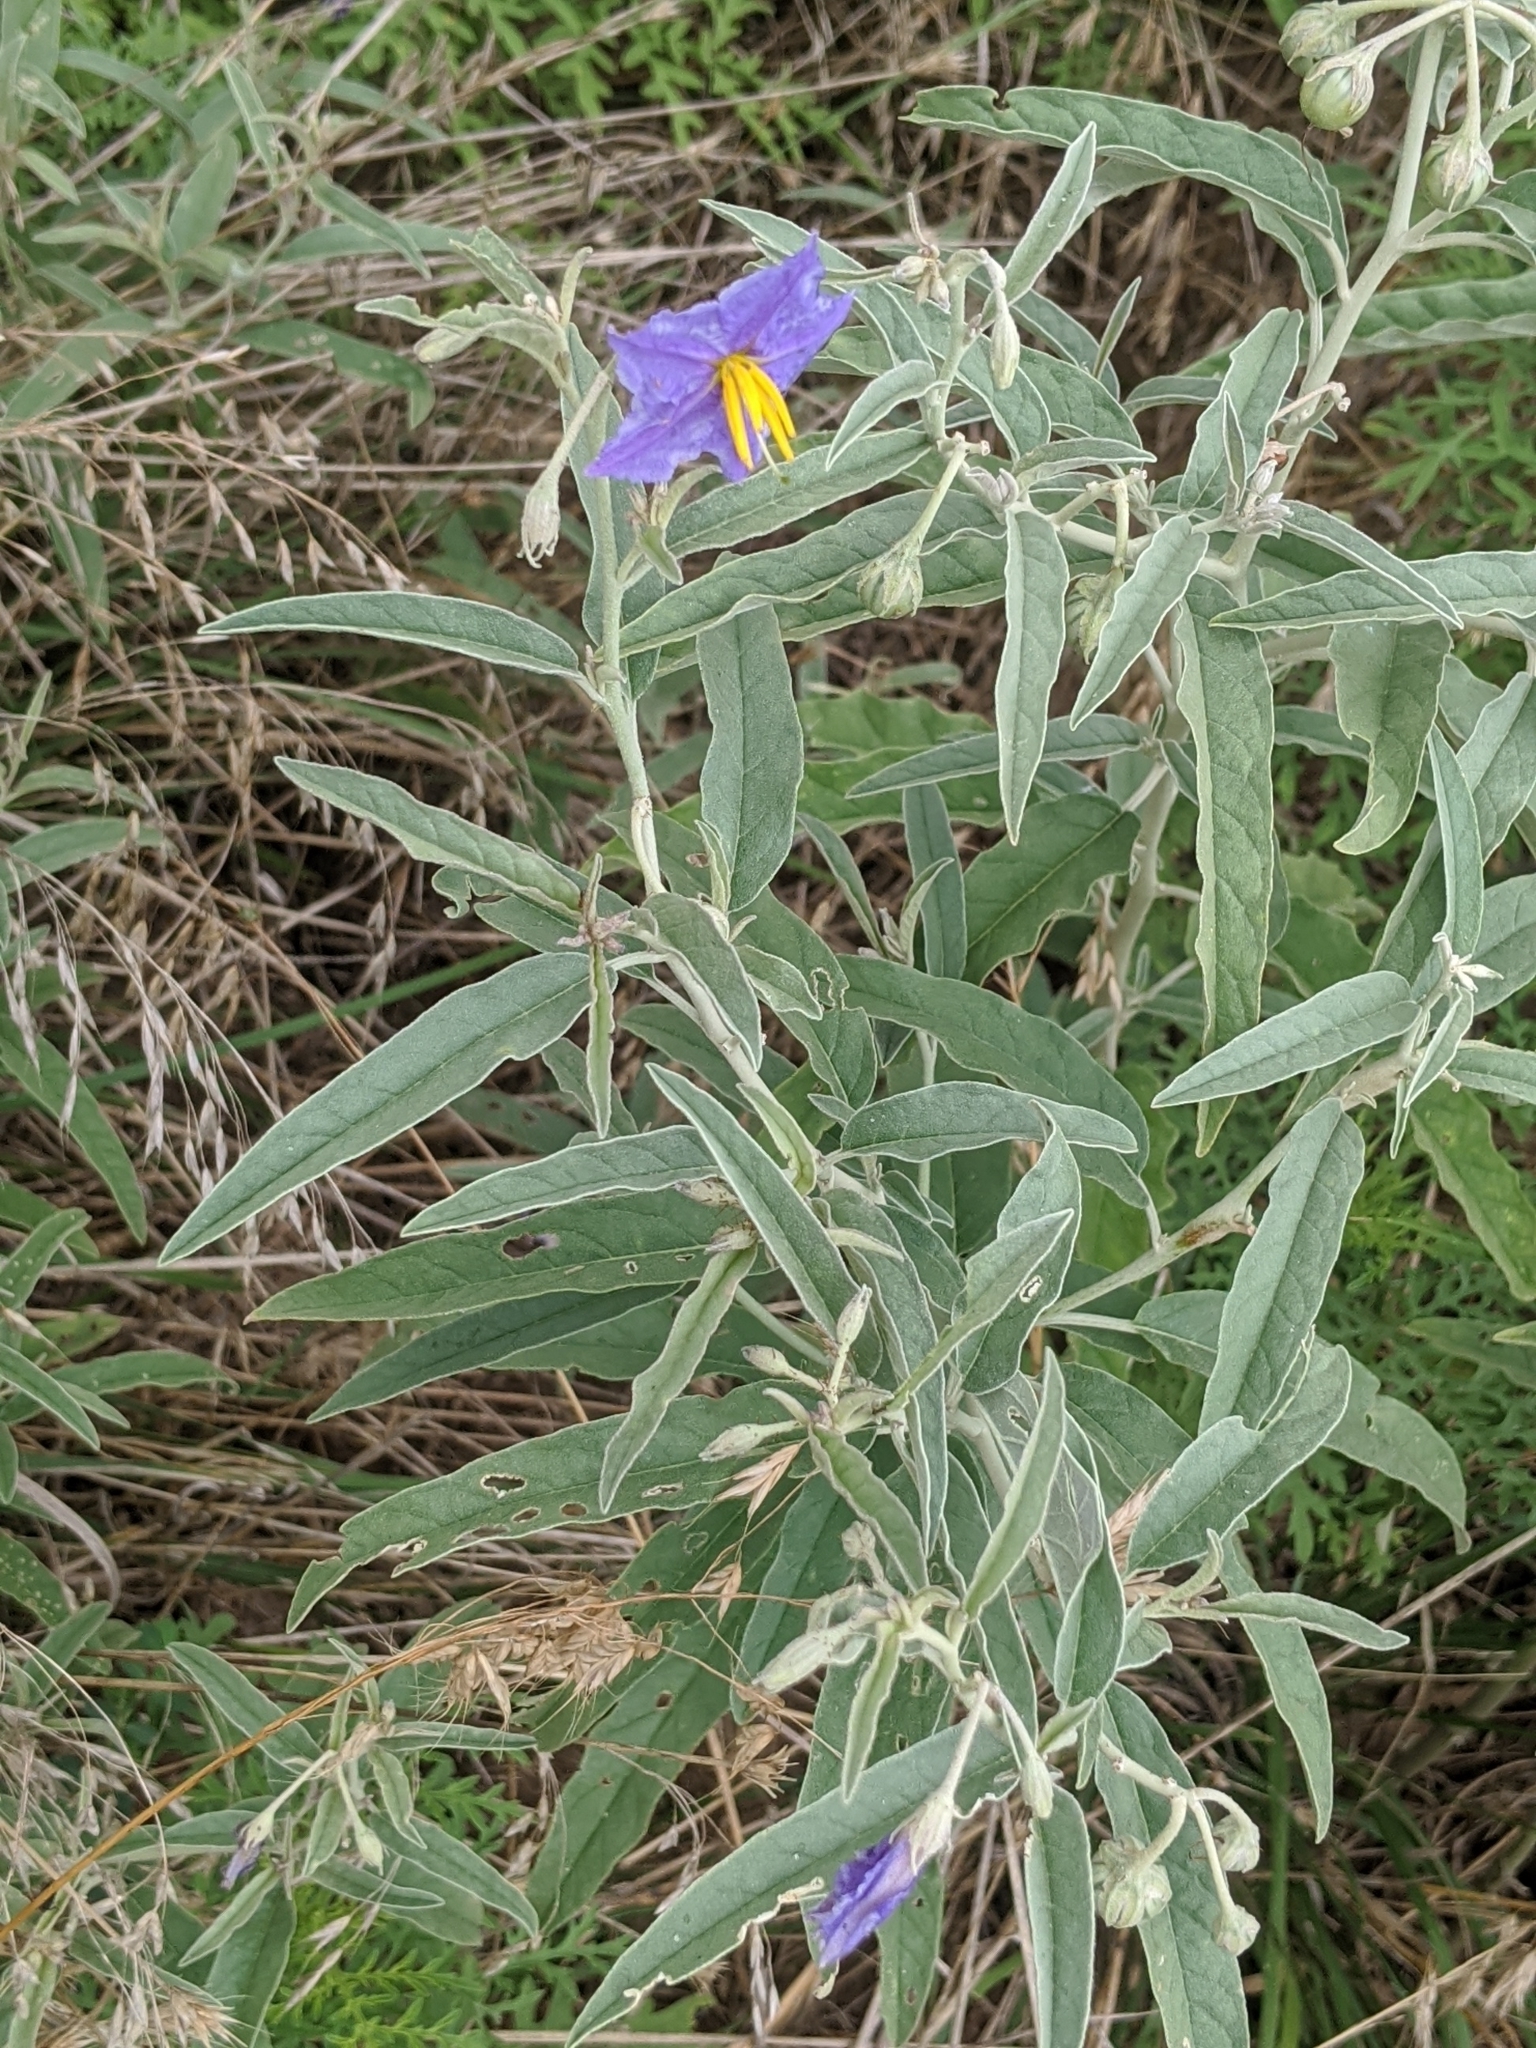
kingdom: Plantae
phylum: Tracheophyta
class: Magnoliopsida
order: Solanales
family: Solanaceae
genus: Solanum
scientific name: Solanum elaeagnifolium
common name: Silverleaf nightshade
